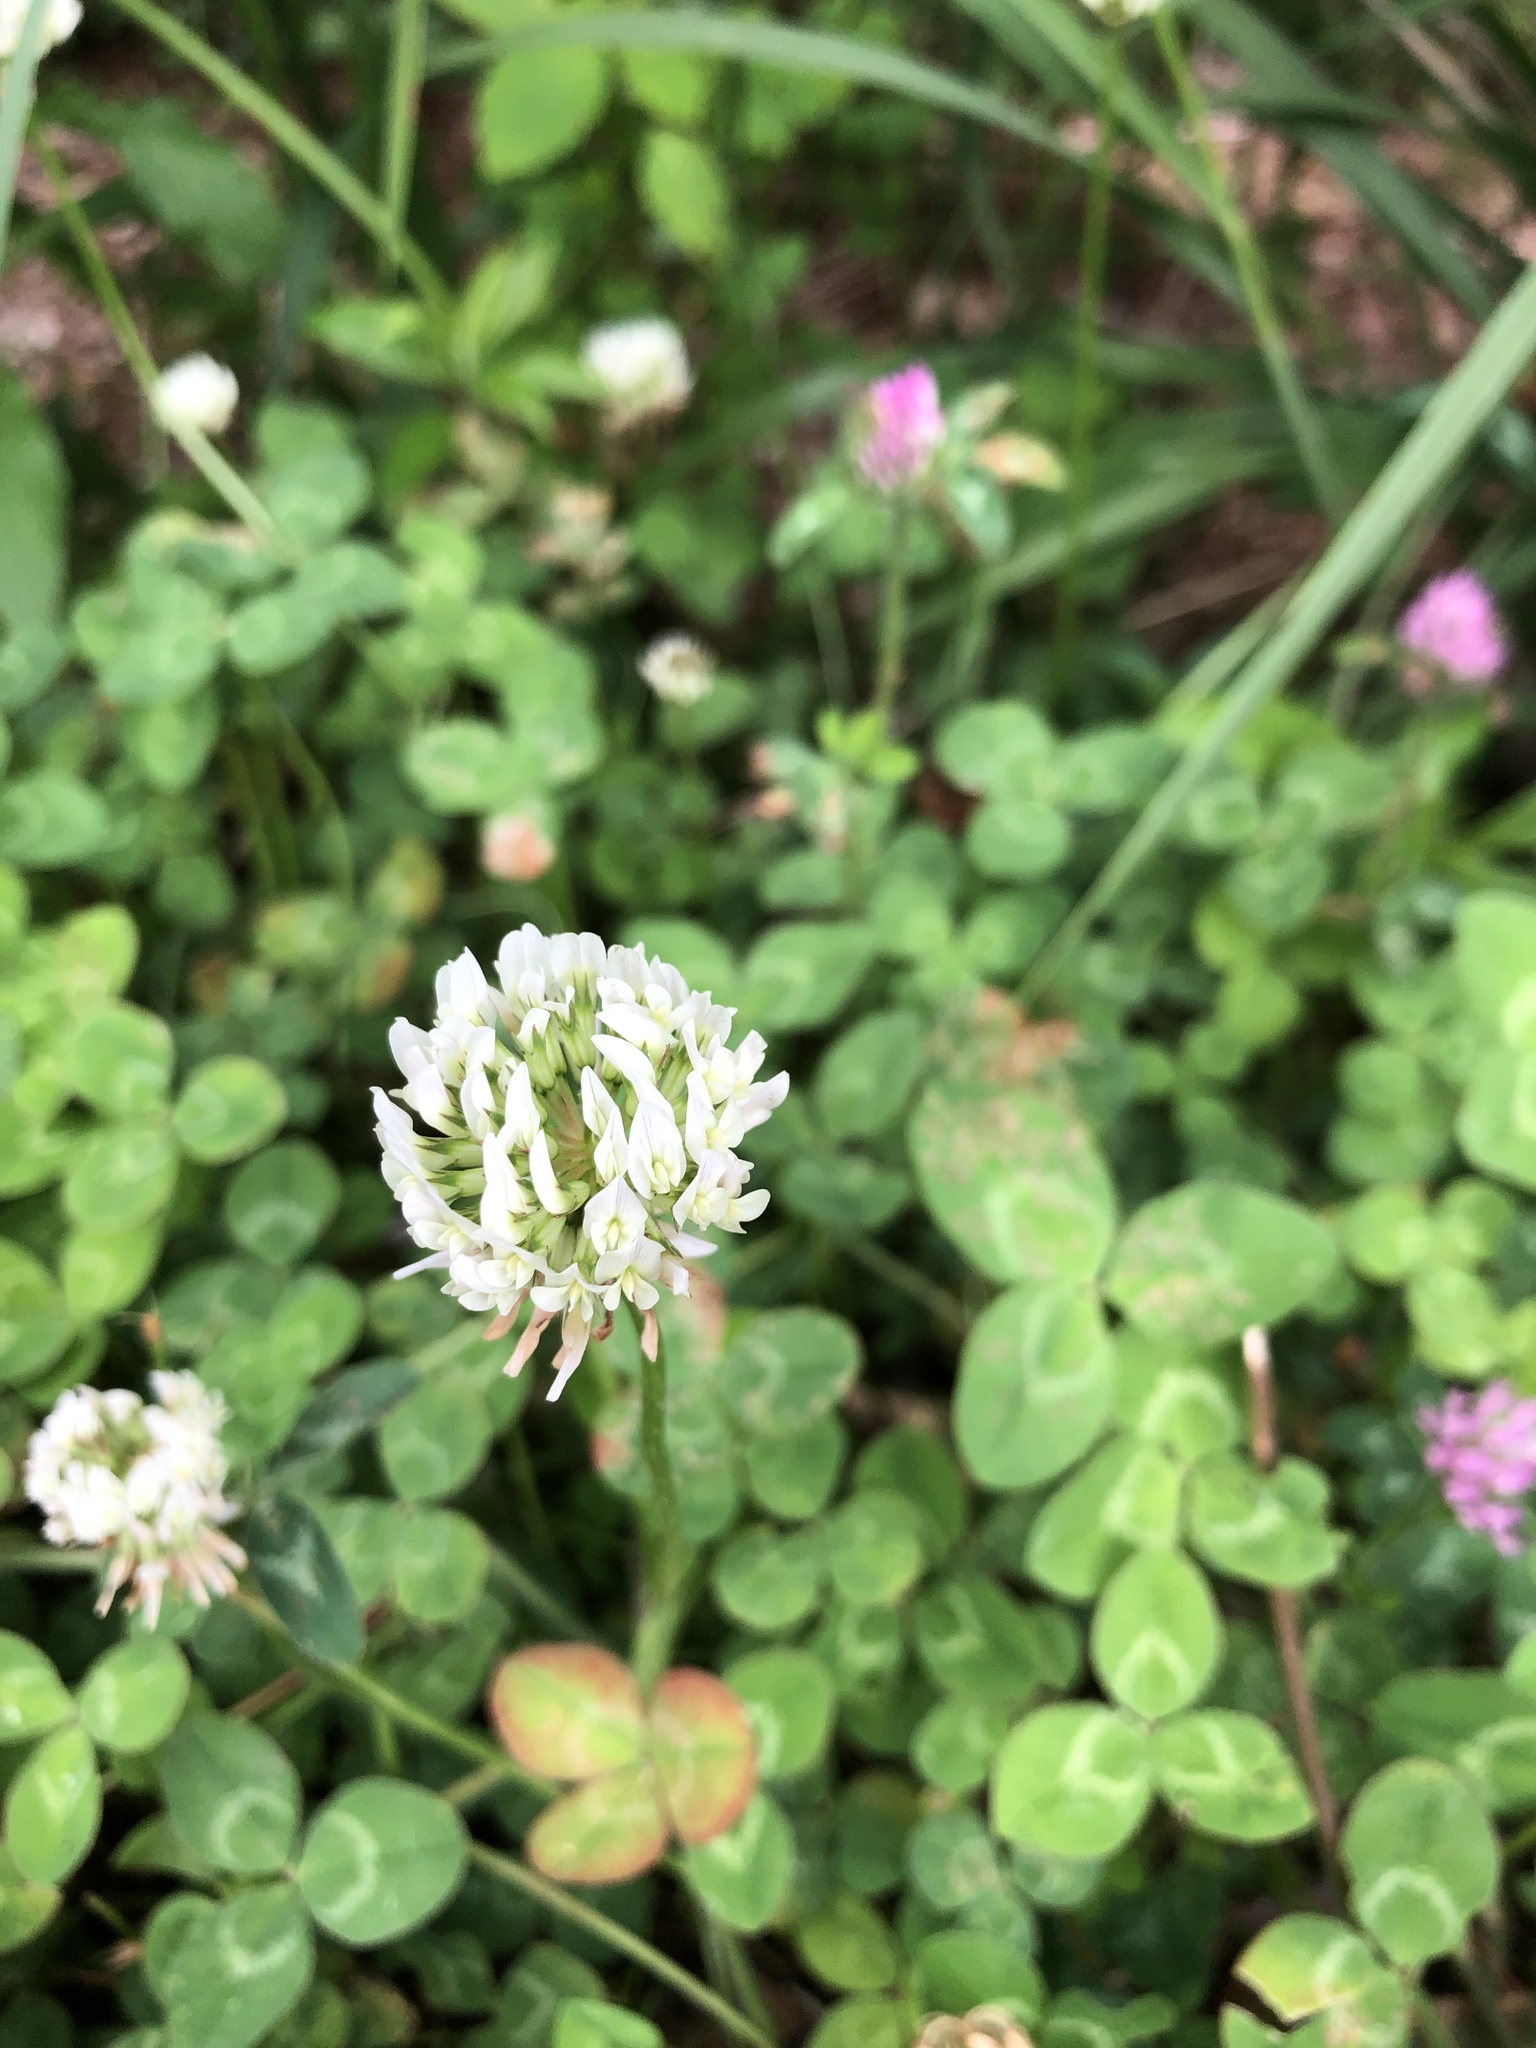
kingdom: Plantae
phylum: Tracheophyta
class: Magnoliopsida
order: Fabales
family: Fabaceae
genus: Trifolium
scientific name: Trifolium repens
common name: White clover
